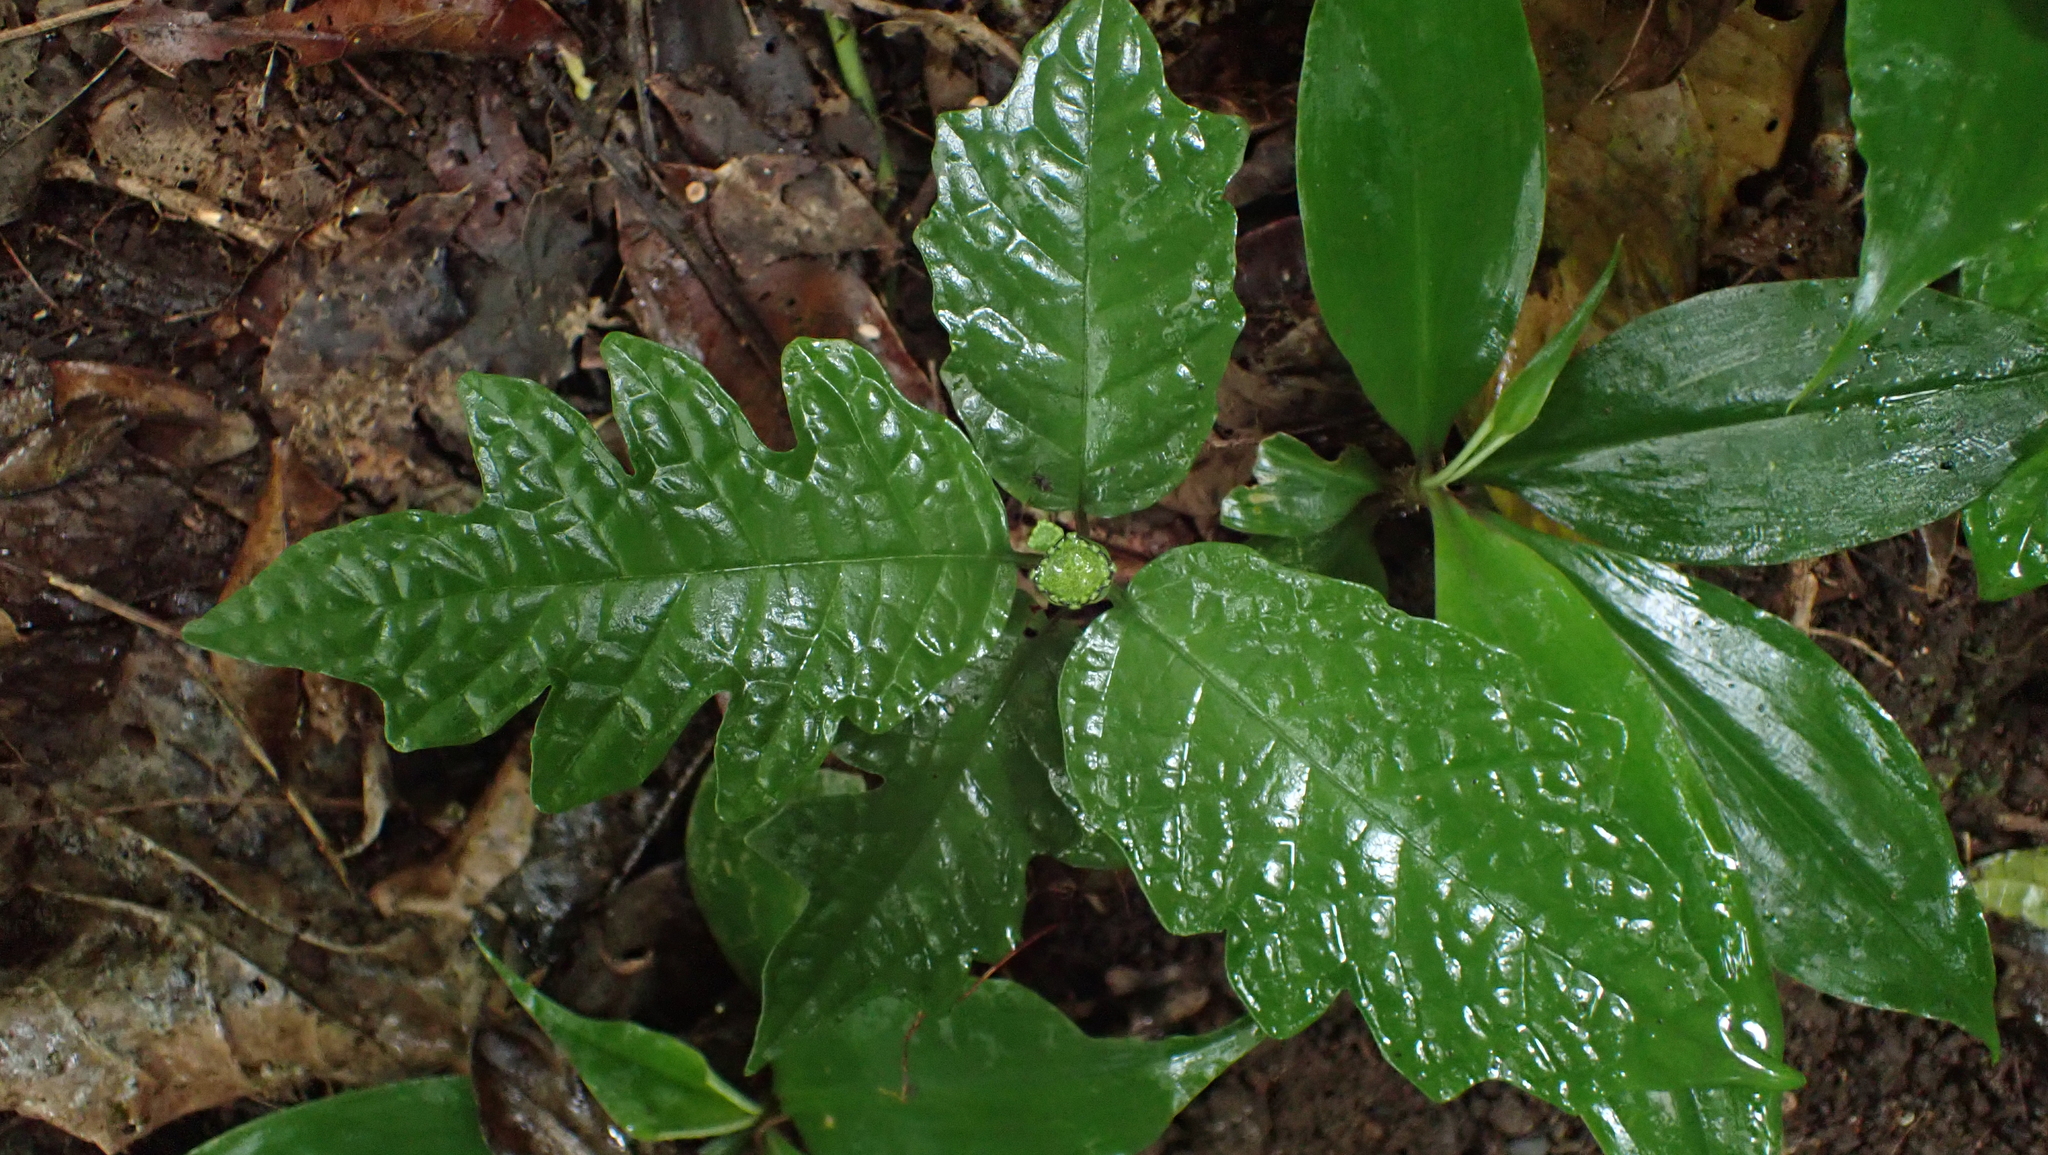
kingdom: Plantae
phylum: Tracheophyta
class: Magnoliopsida
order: Rosales
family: Moraceae
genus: Dorstenia
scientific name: Dorstenia choconiana
